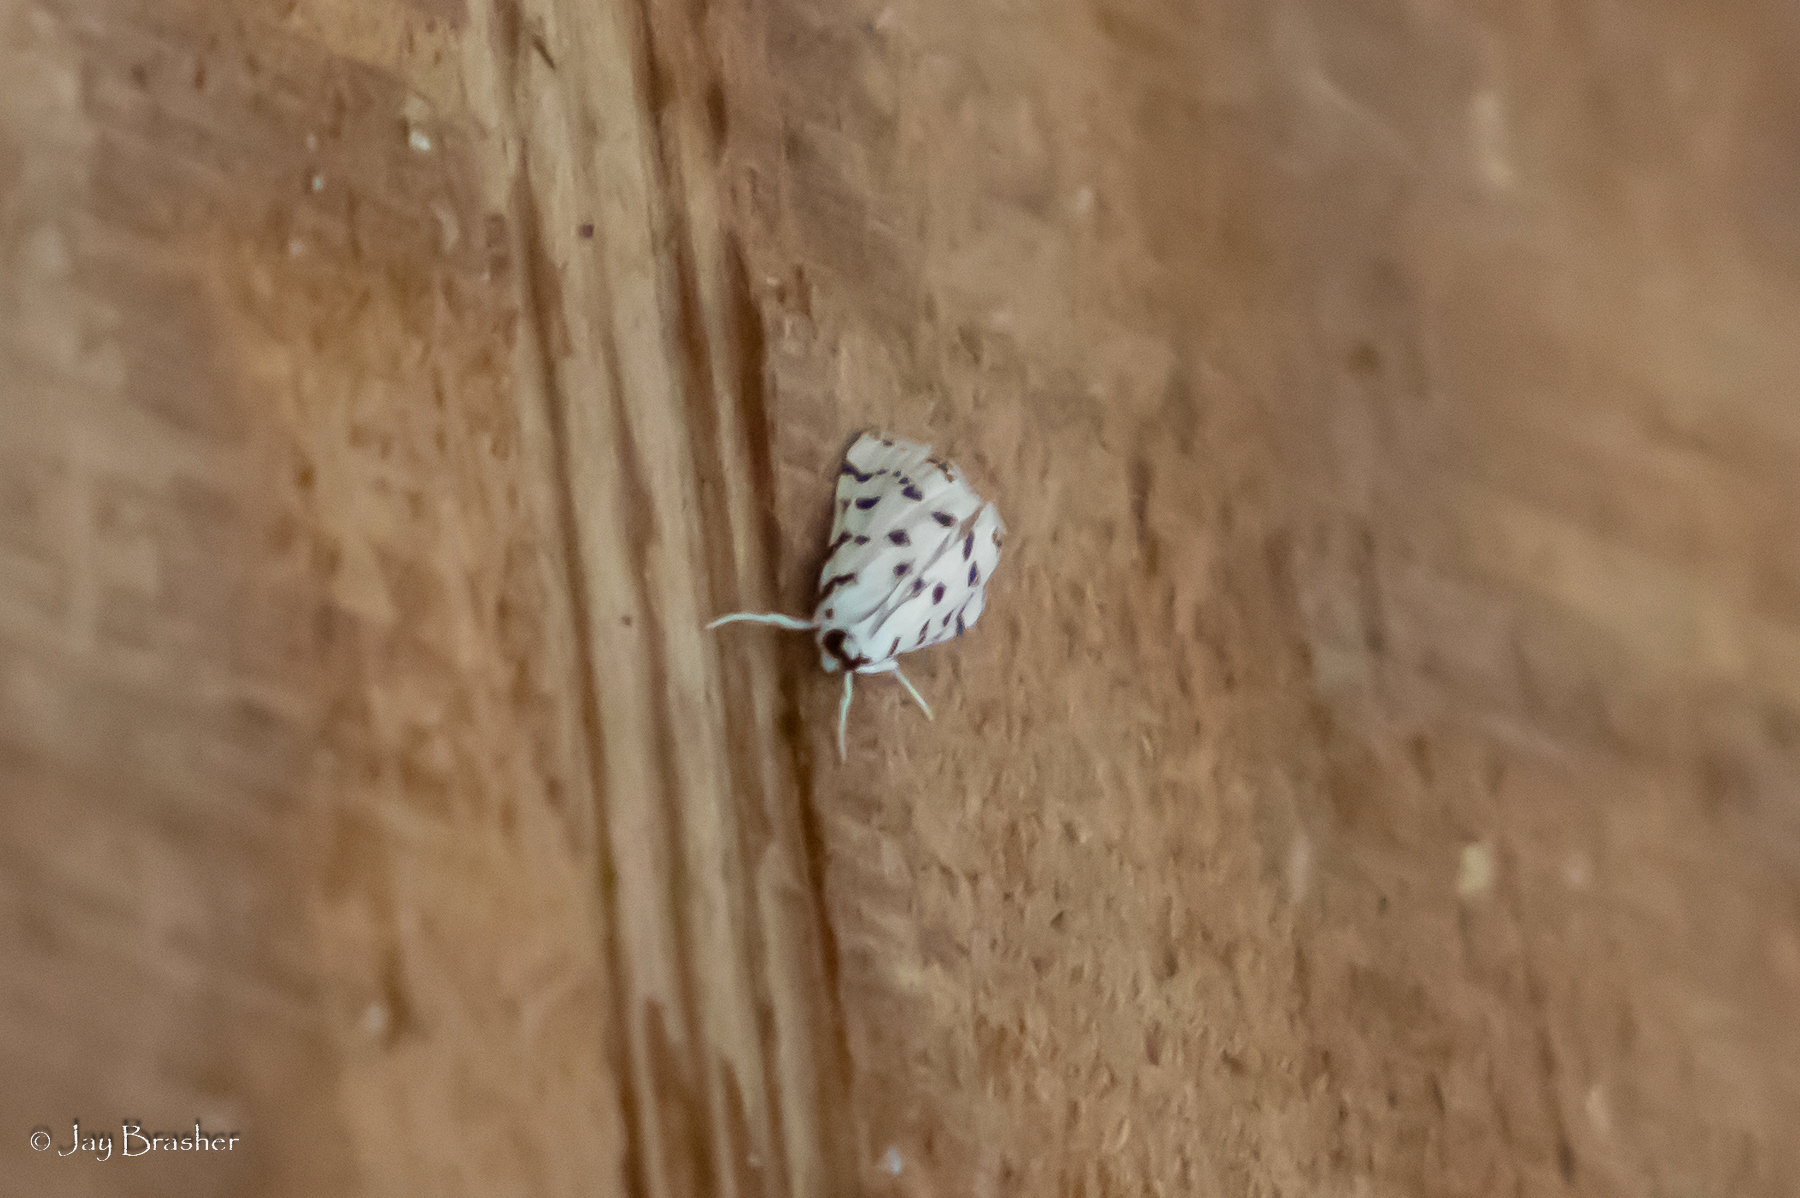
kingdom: Animalia
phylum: Arthropoda
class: Insecta
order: Lepidoptera
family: Crambidae
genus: Eustixia
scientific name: Eustixia pupula
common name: American cabbage pearl
